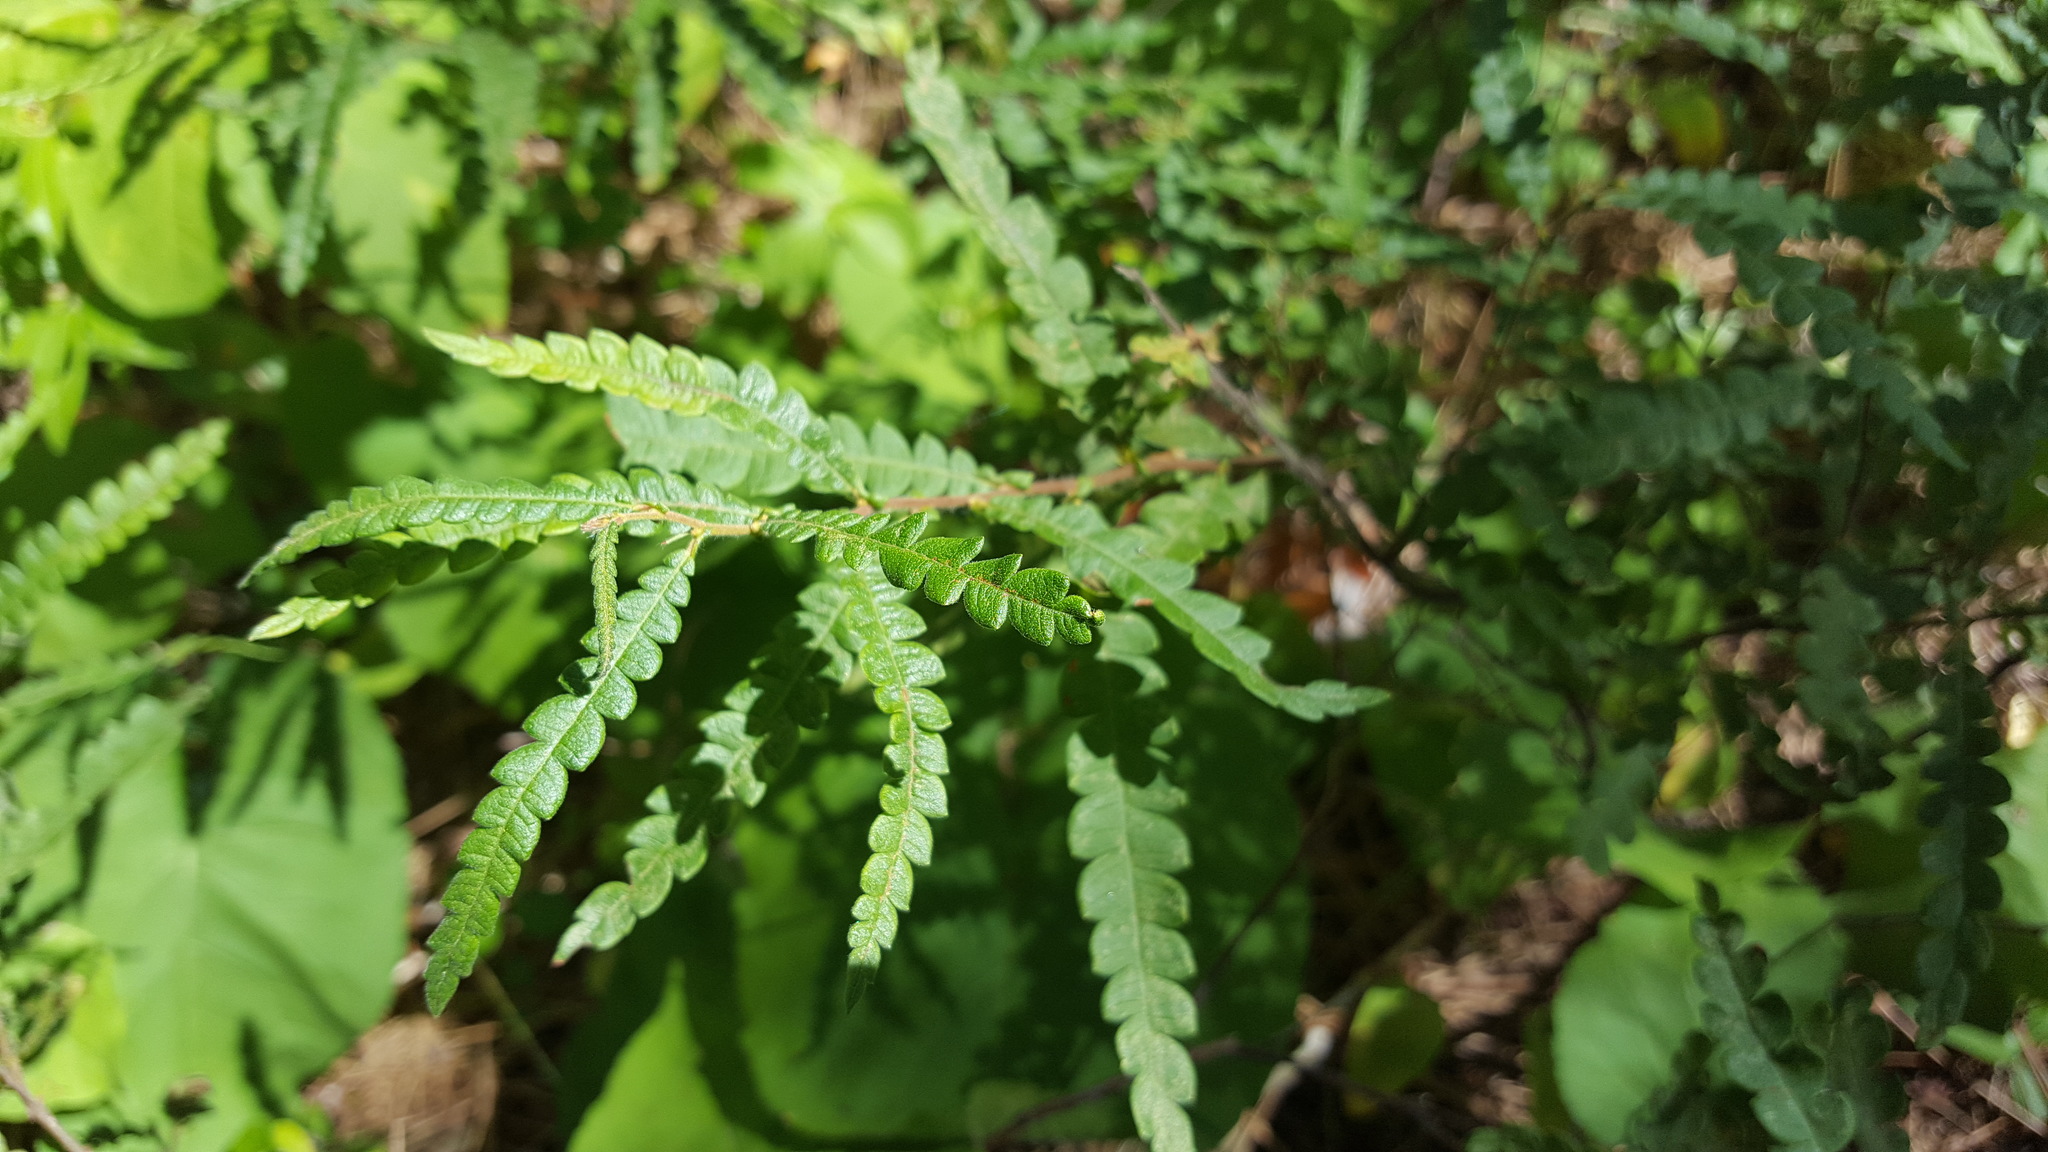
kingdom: Plantae
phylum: Tracheophyta
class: Magnoliopsida
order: Fagales
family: Myricaceae
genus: Comptonia
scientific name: Comptonia peregrina
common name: Sweet-fern
